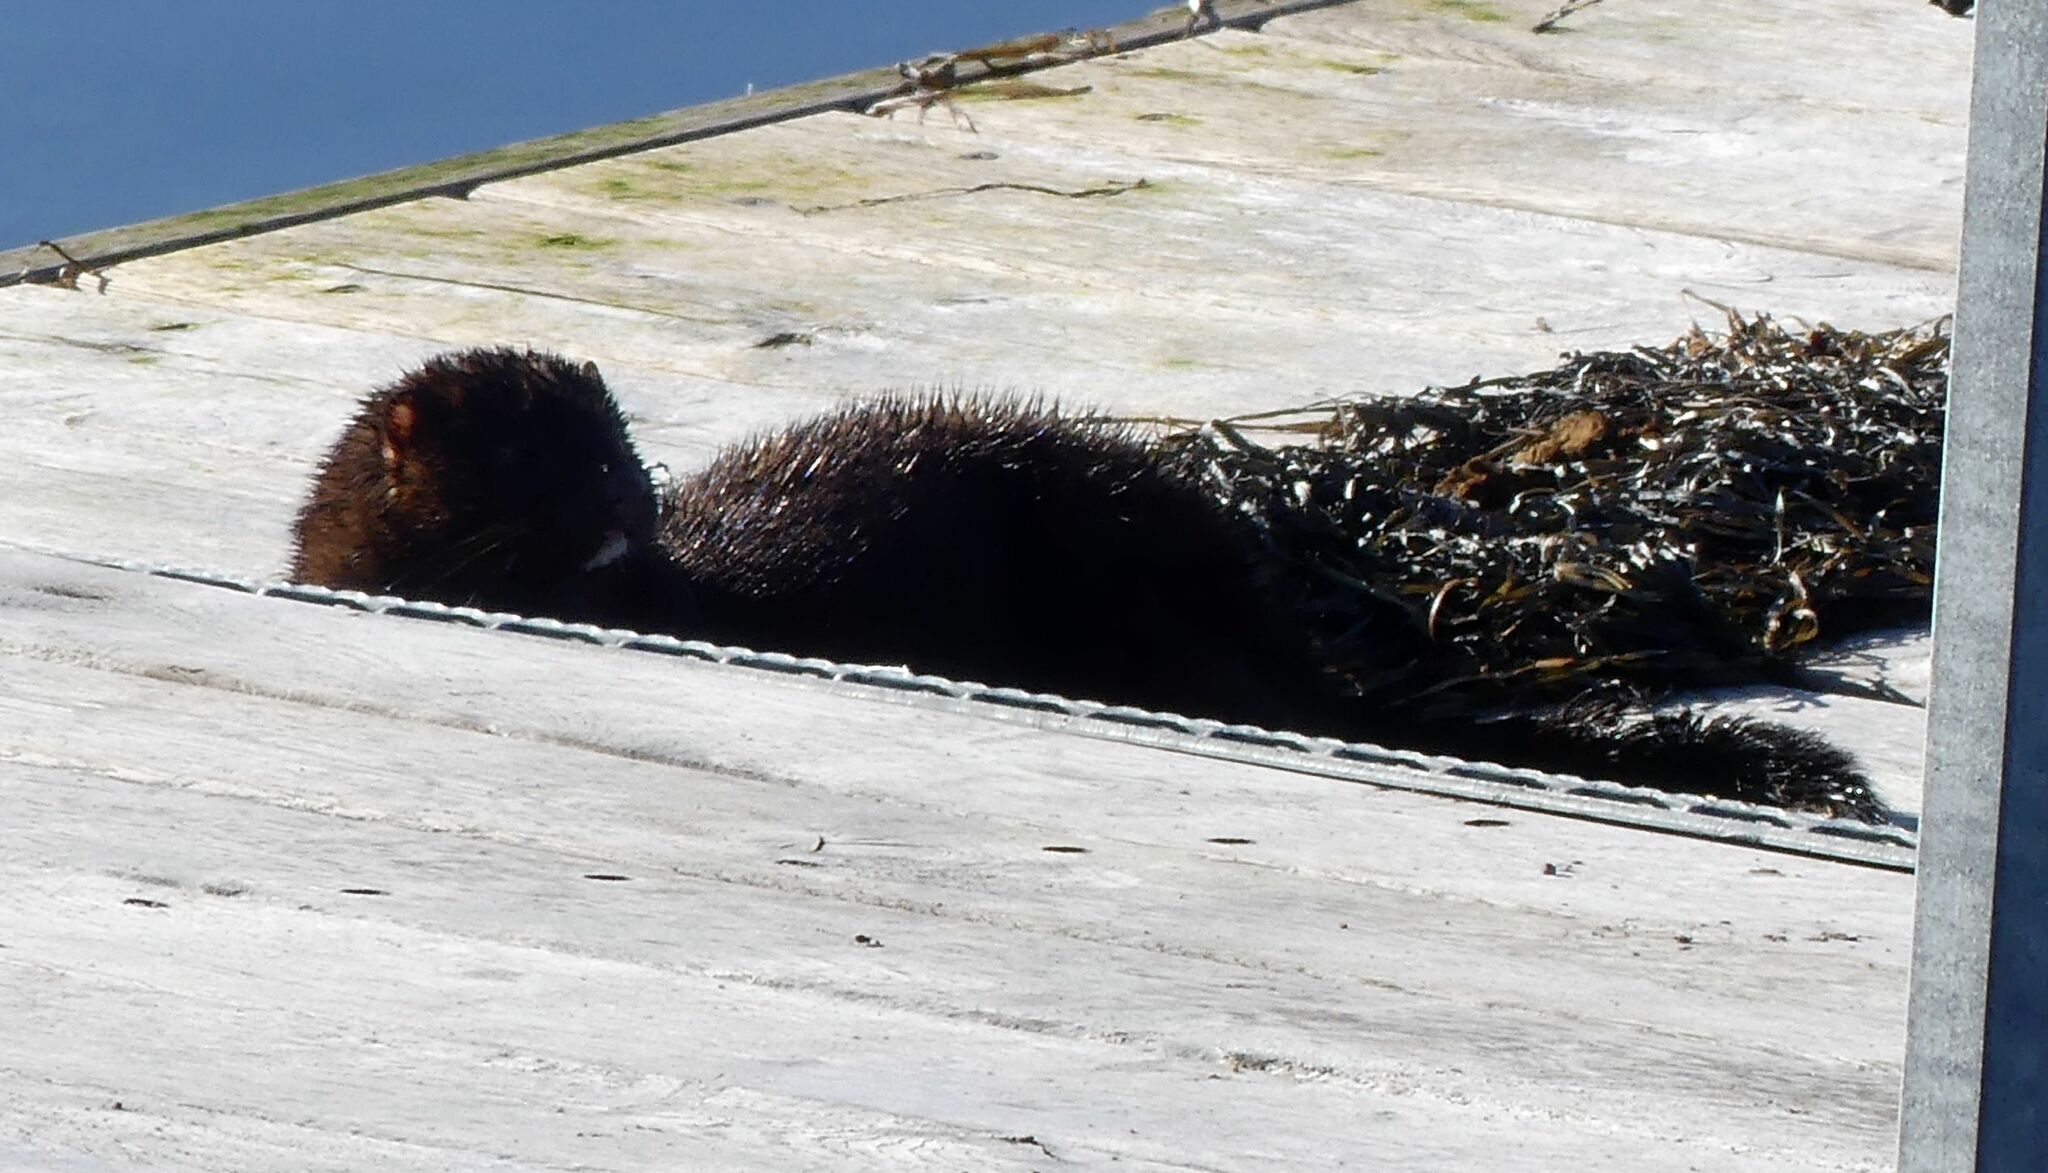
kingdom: Animalia
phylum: Chordata
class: Mammalia
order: Carnivora
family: Mustelidae
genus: Mustela
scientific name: Mustela
